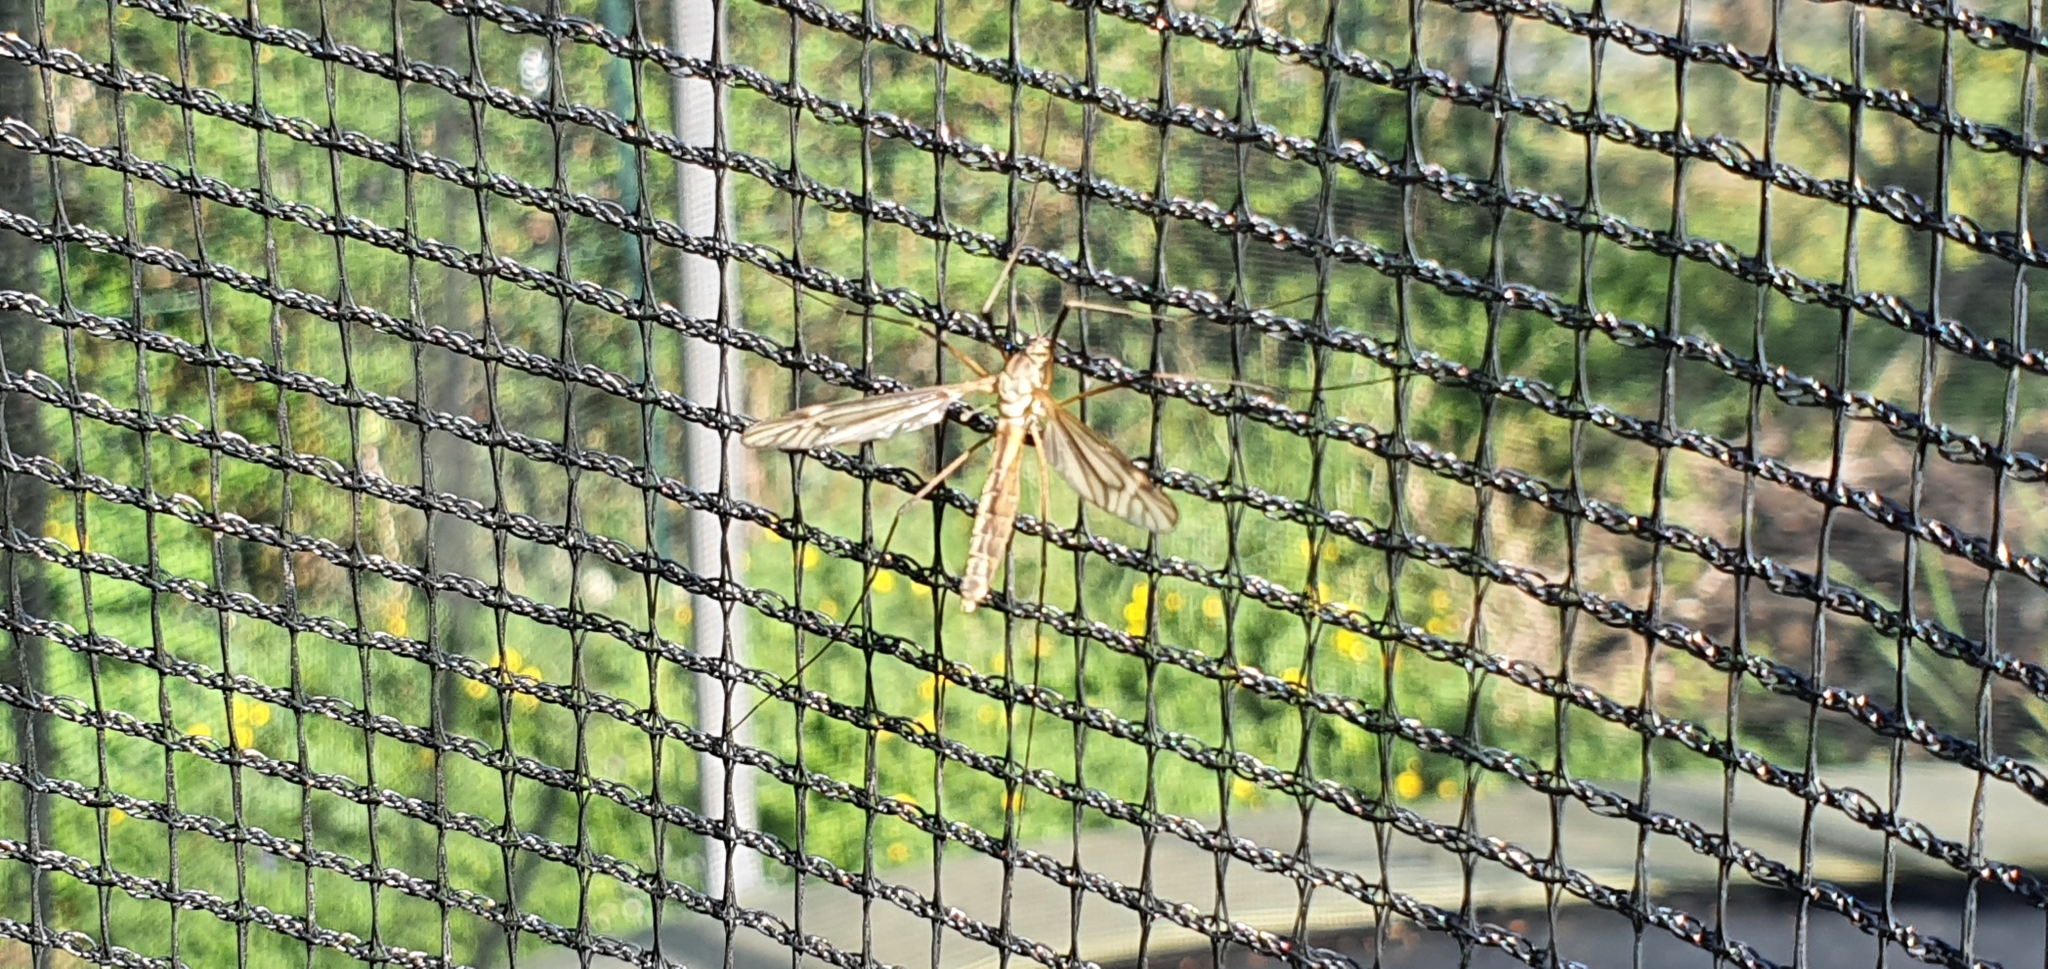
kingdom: Animalia
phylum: Arthropoda
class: Insecta
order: Diptera
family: Tipulidae
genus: Tipula
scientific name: Tipula vernalis
